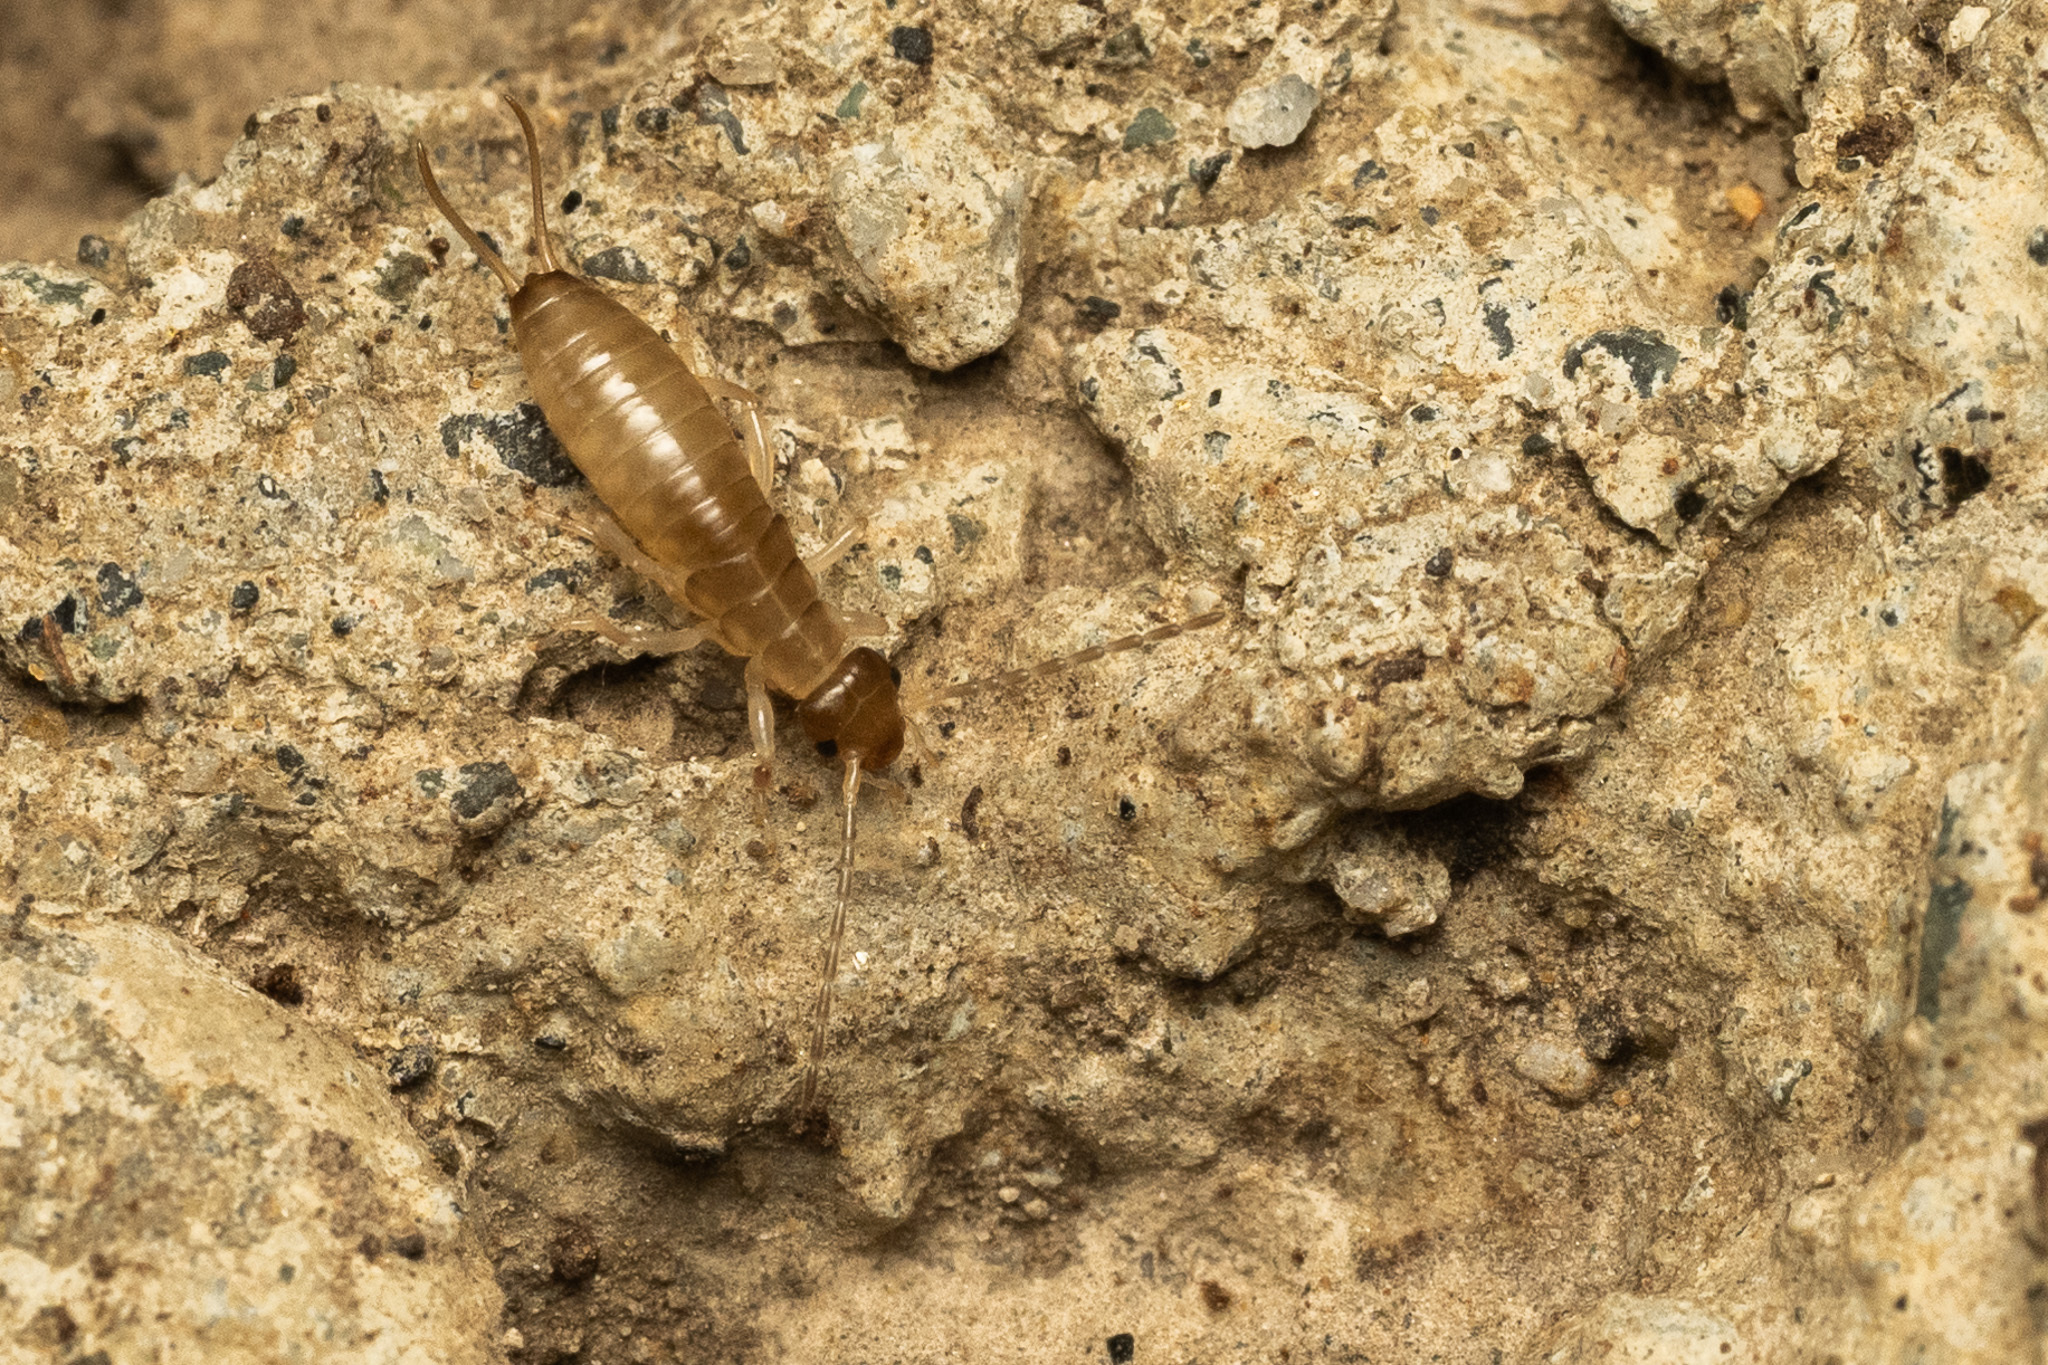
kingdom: Animalia
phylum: Arthropoda
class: Insecta
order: Dermaptera
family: Forficulidae
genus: Forficula
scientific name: Forficula dentata
